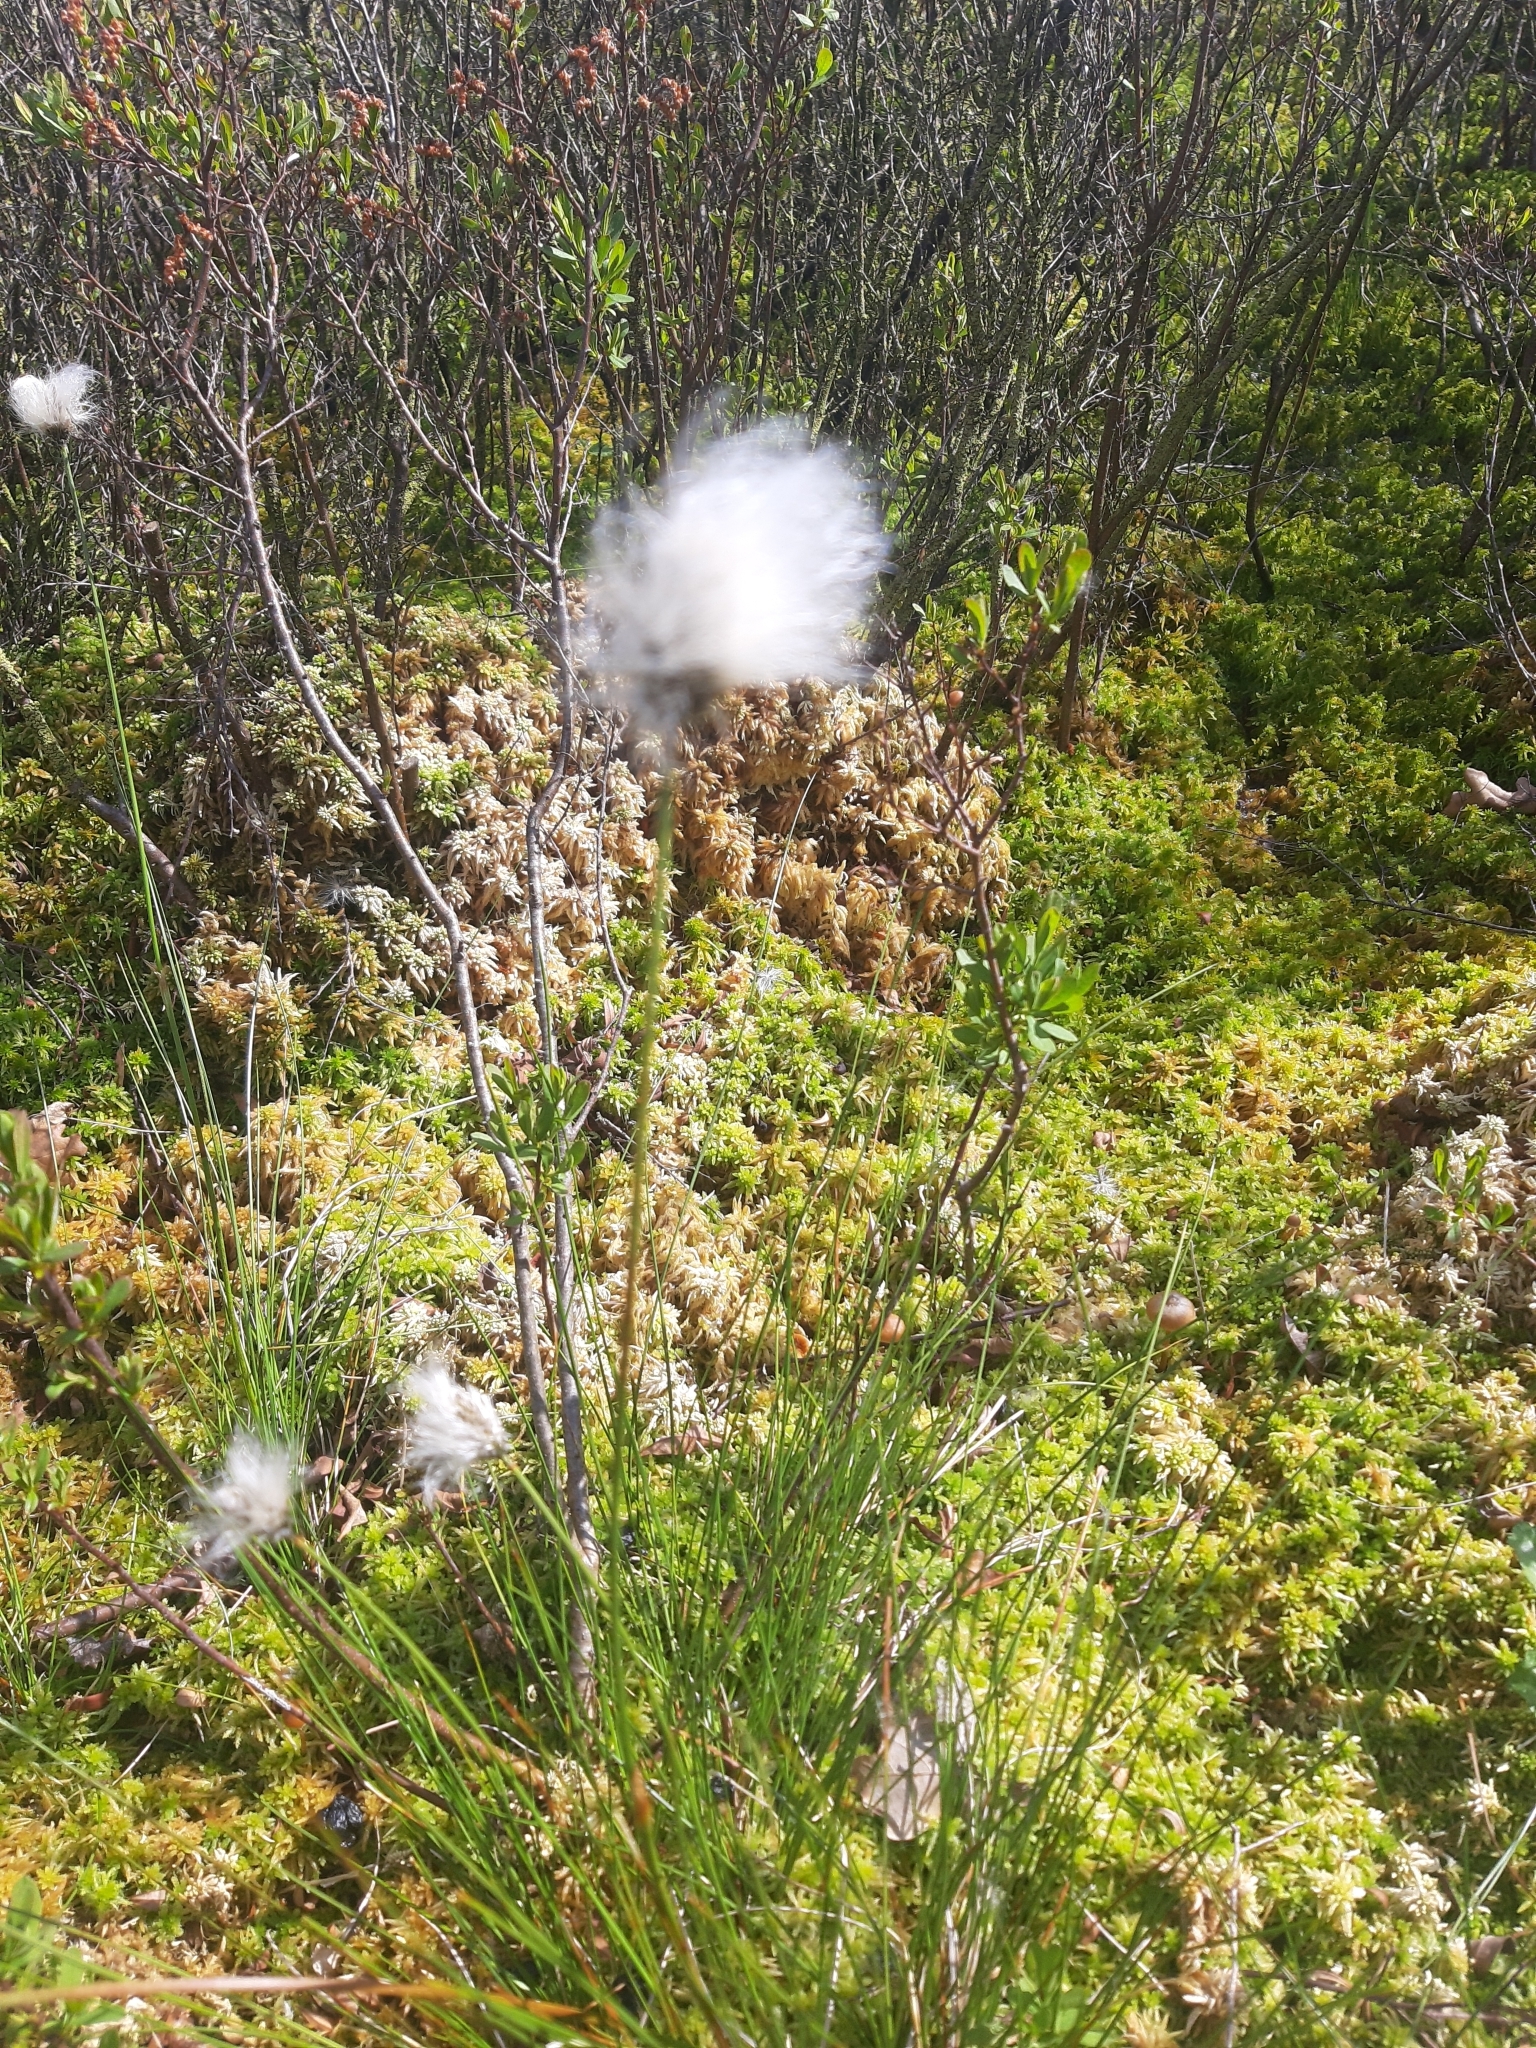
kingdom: Plantae
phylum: Tracheophyta
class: Liliopsida
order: Poales
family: Cyperaceae
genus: Eriophorum
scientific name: Eriophorum vaginatum
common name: Hare's-tail cottongrass
